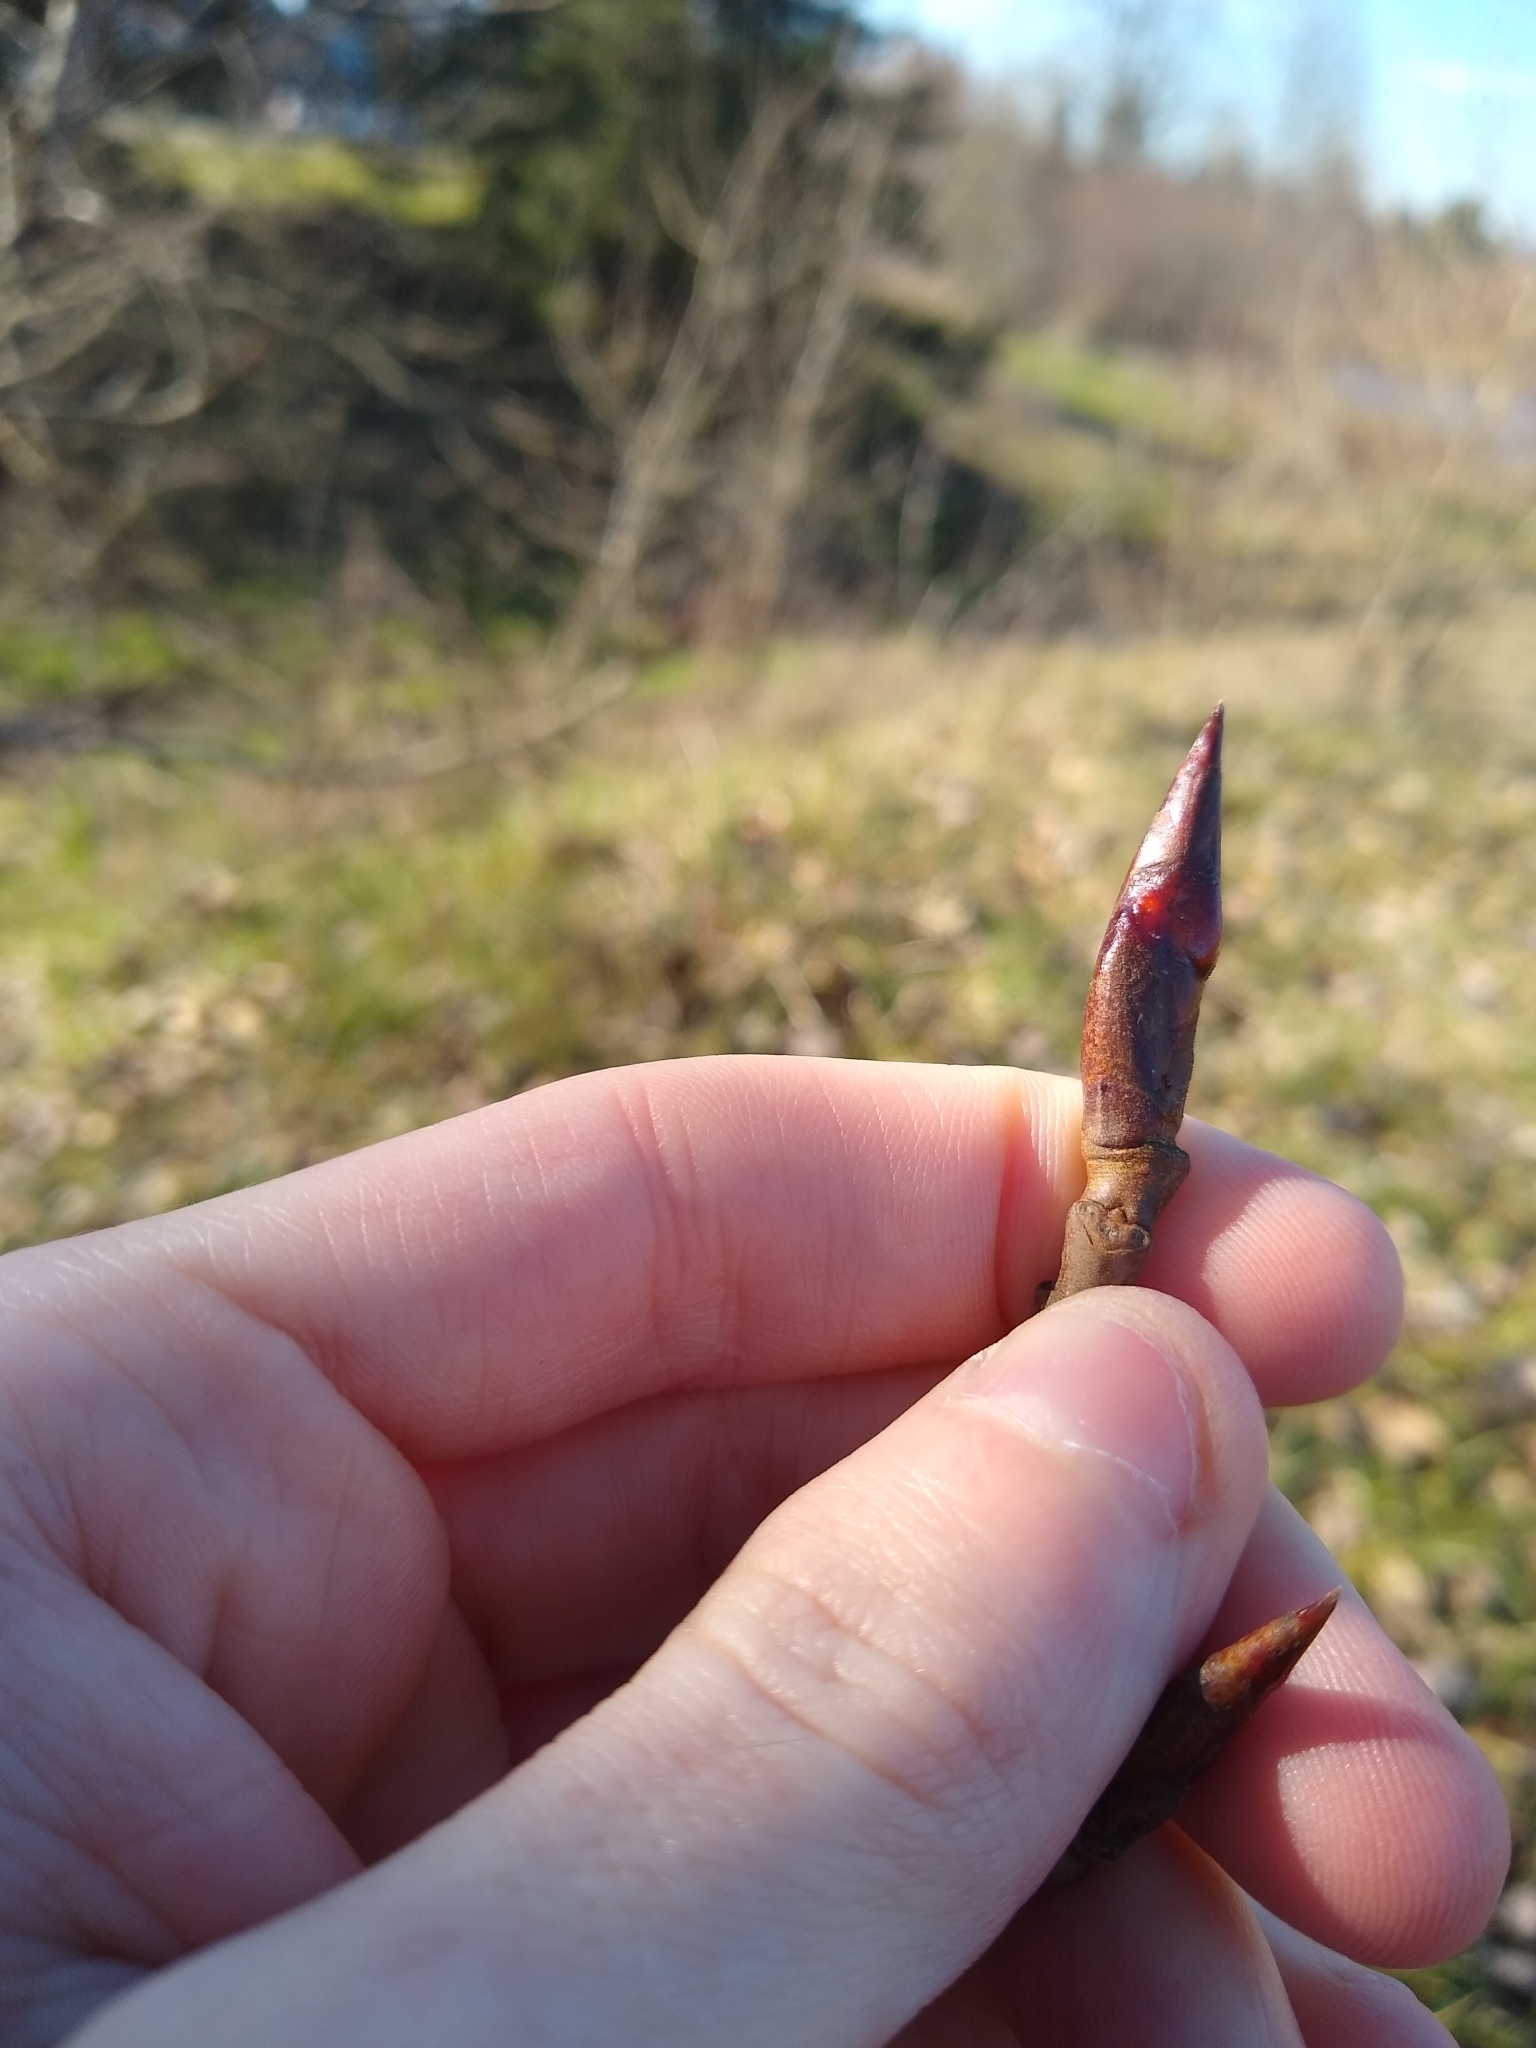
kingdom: Plantae
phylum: Tracheophyta
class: Magnoliopsida
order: Malpighiales
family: Salicaceae
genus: Populus
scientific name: Populus trichocarpa
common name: Black cottonwood
